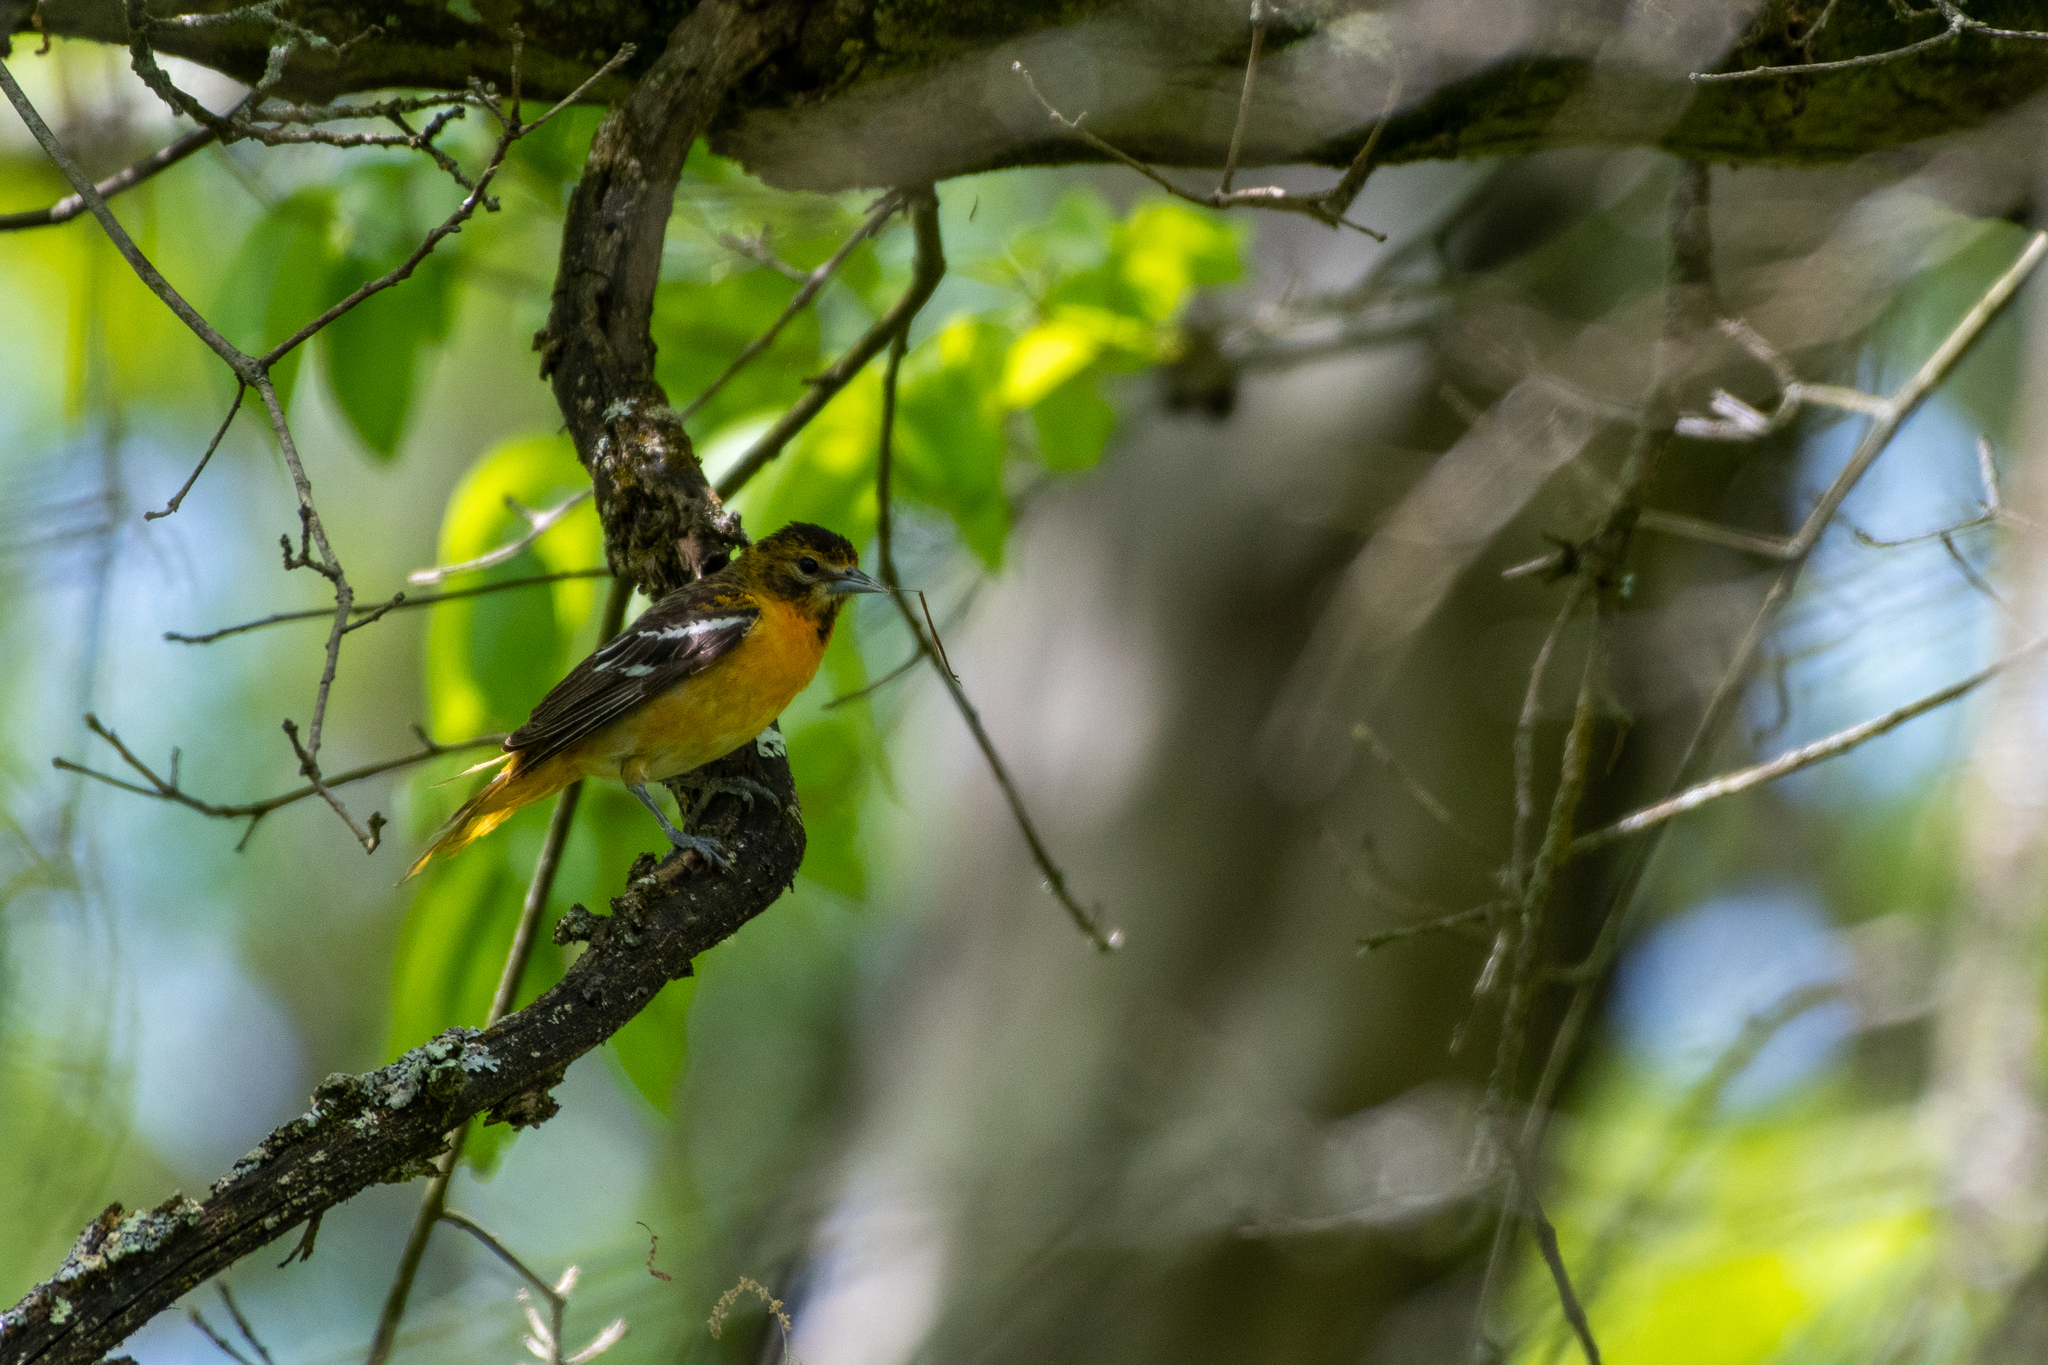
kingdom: Animalia
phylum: Chordata
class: Aves
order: Passeriformes
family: Icteridae
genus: Icterus
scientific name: Icterus galbula
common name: Baltimore oriole
